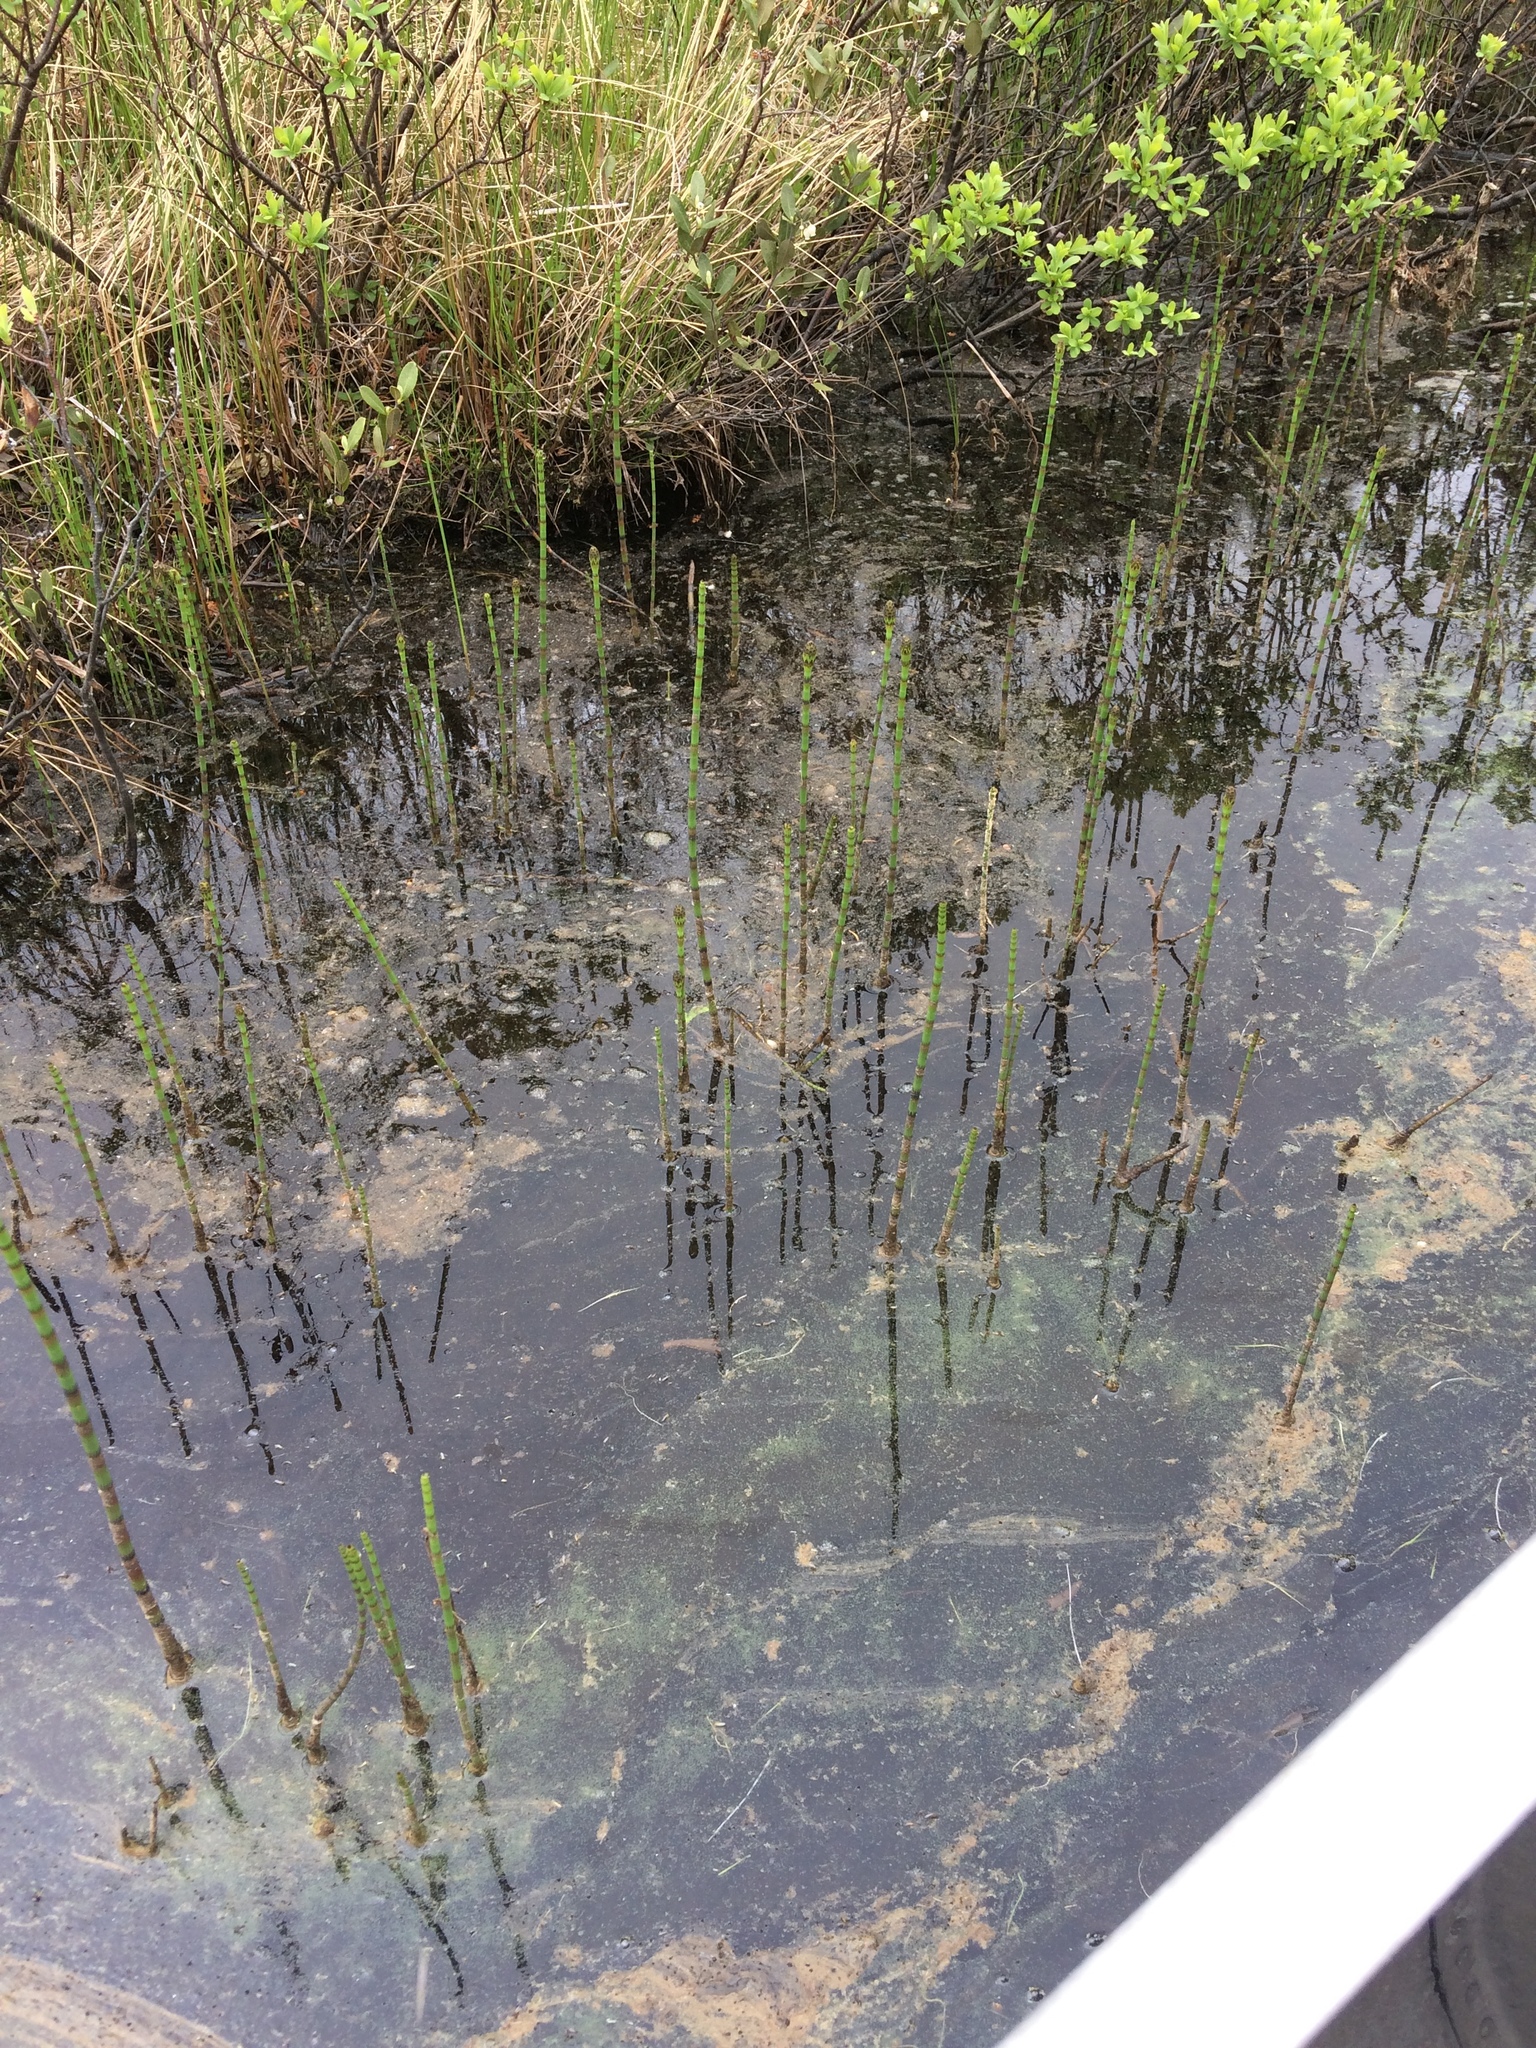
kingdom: Plantae
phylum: Tracheophyta
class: Polypodiopsida
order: Equisetales
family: Equisetaceae
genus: Equisetum
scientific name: Equisetum fluviatile
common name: Water horsetail
